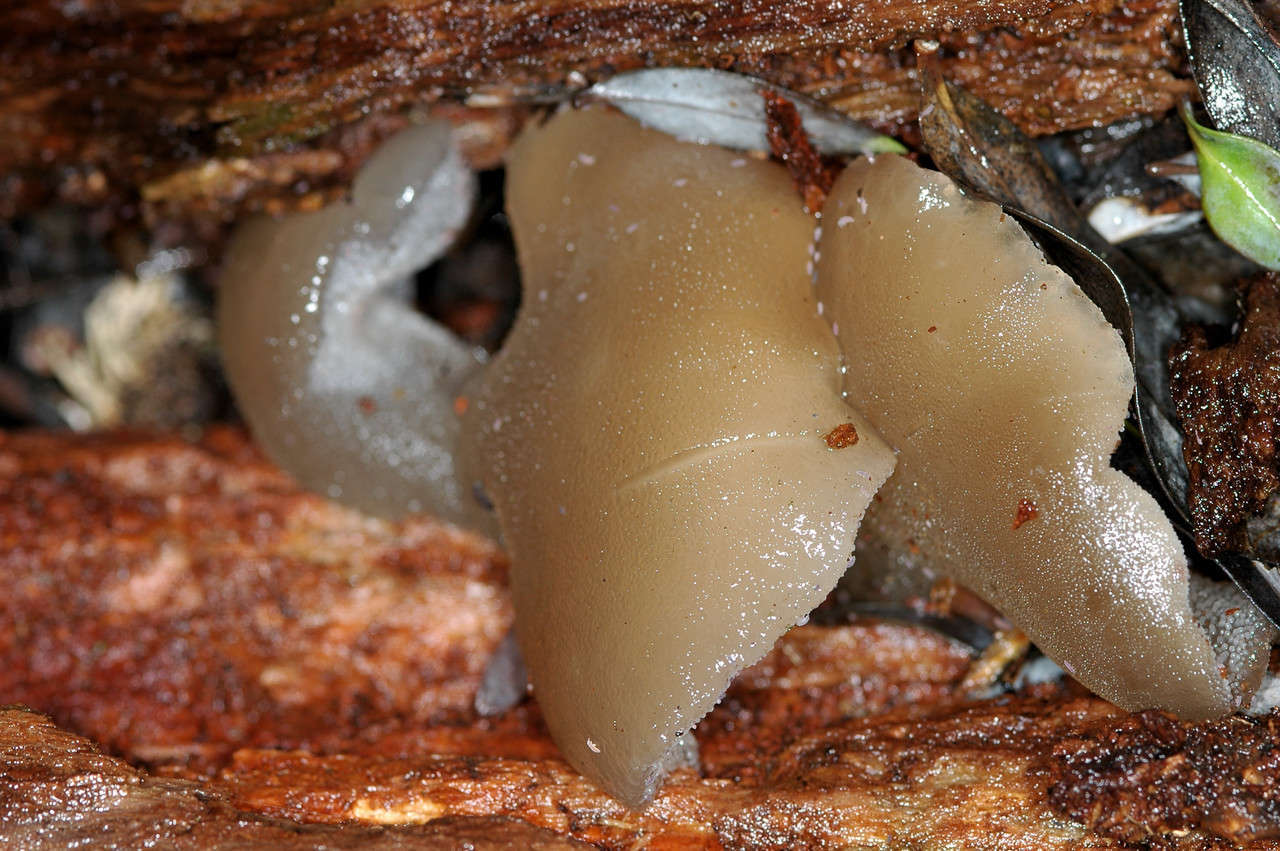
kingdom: Fungi
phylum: Basidiomycota
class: Agaricomycetes
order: Auriculariales
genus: Pseudohydnum
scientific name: Pseudohydnum gelatinosum
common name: Jelly tongue
